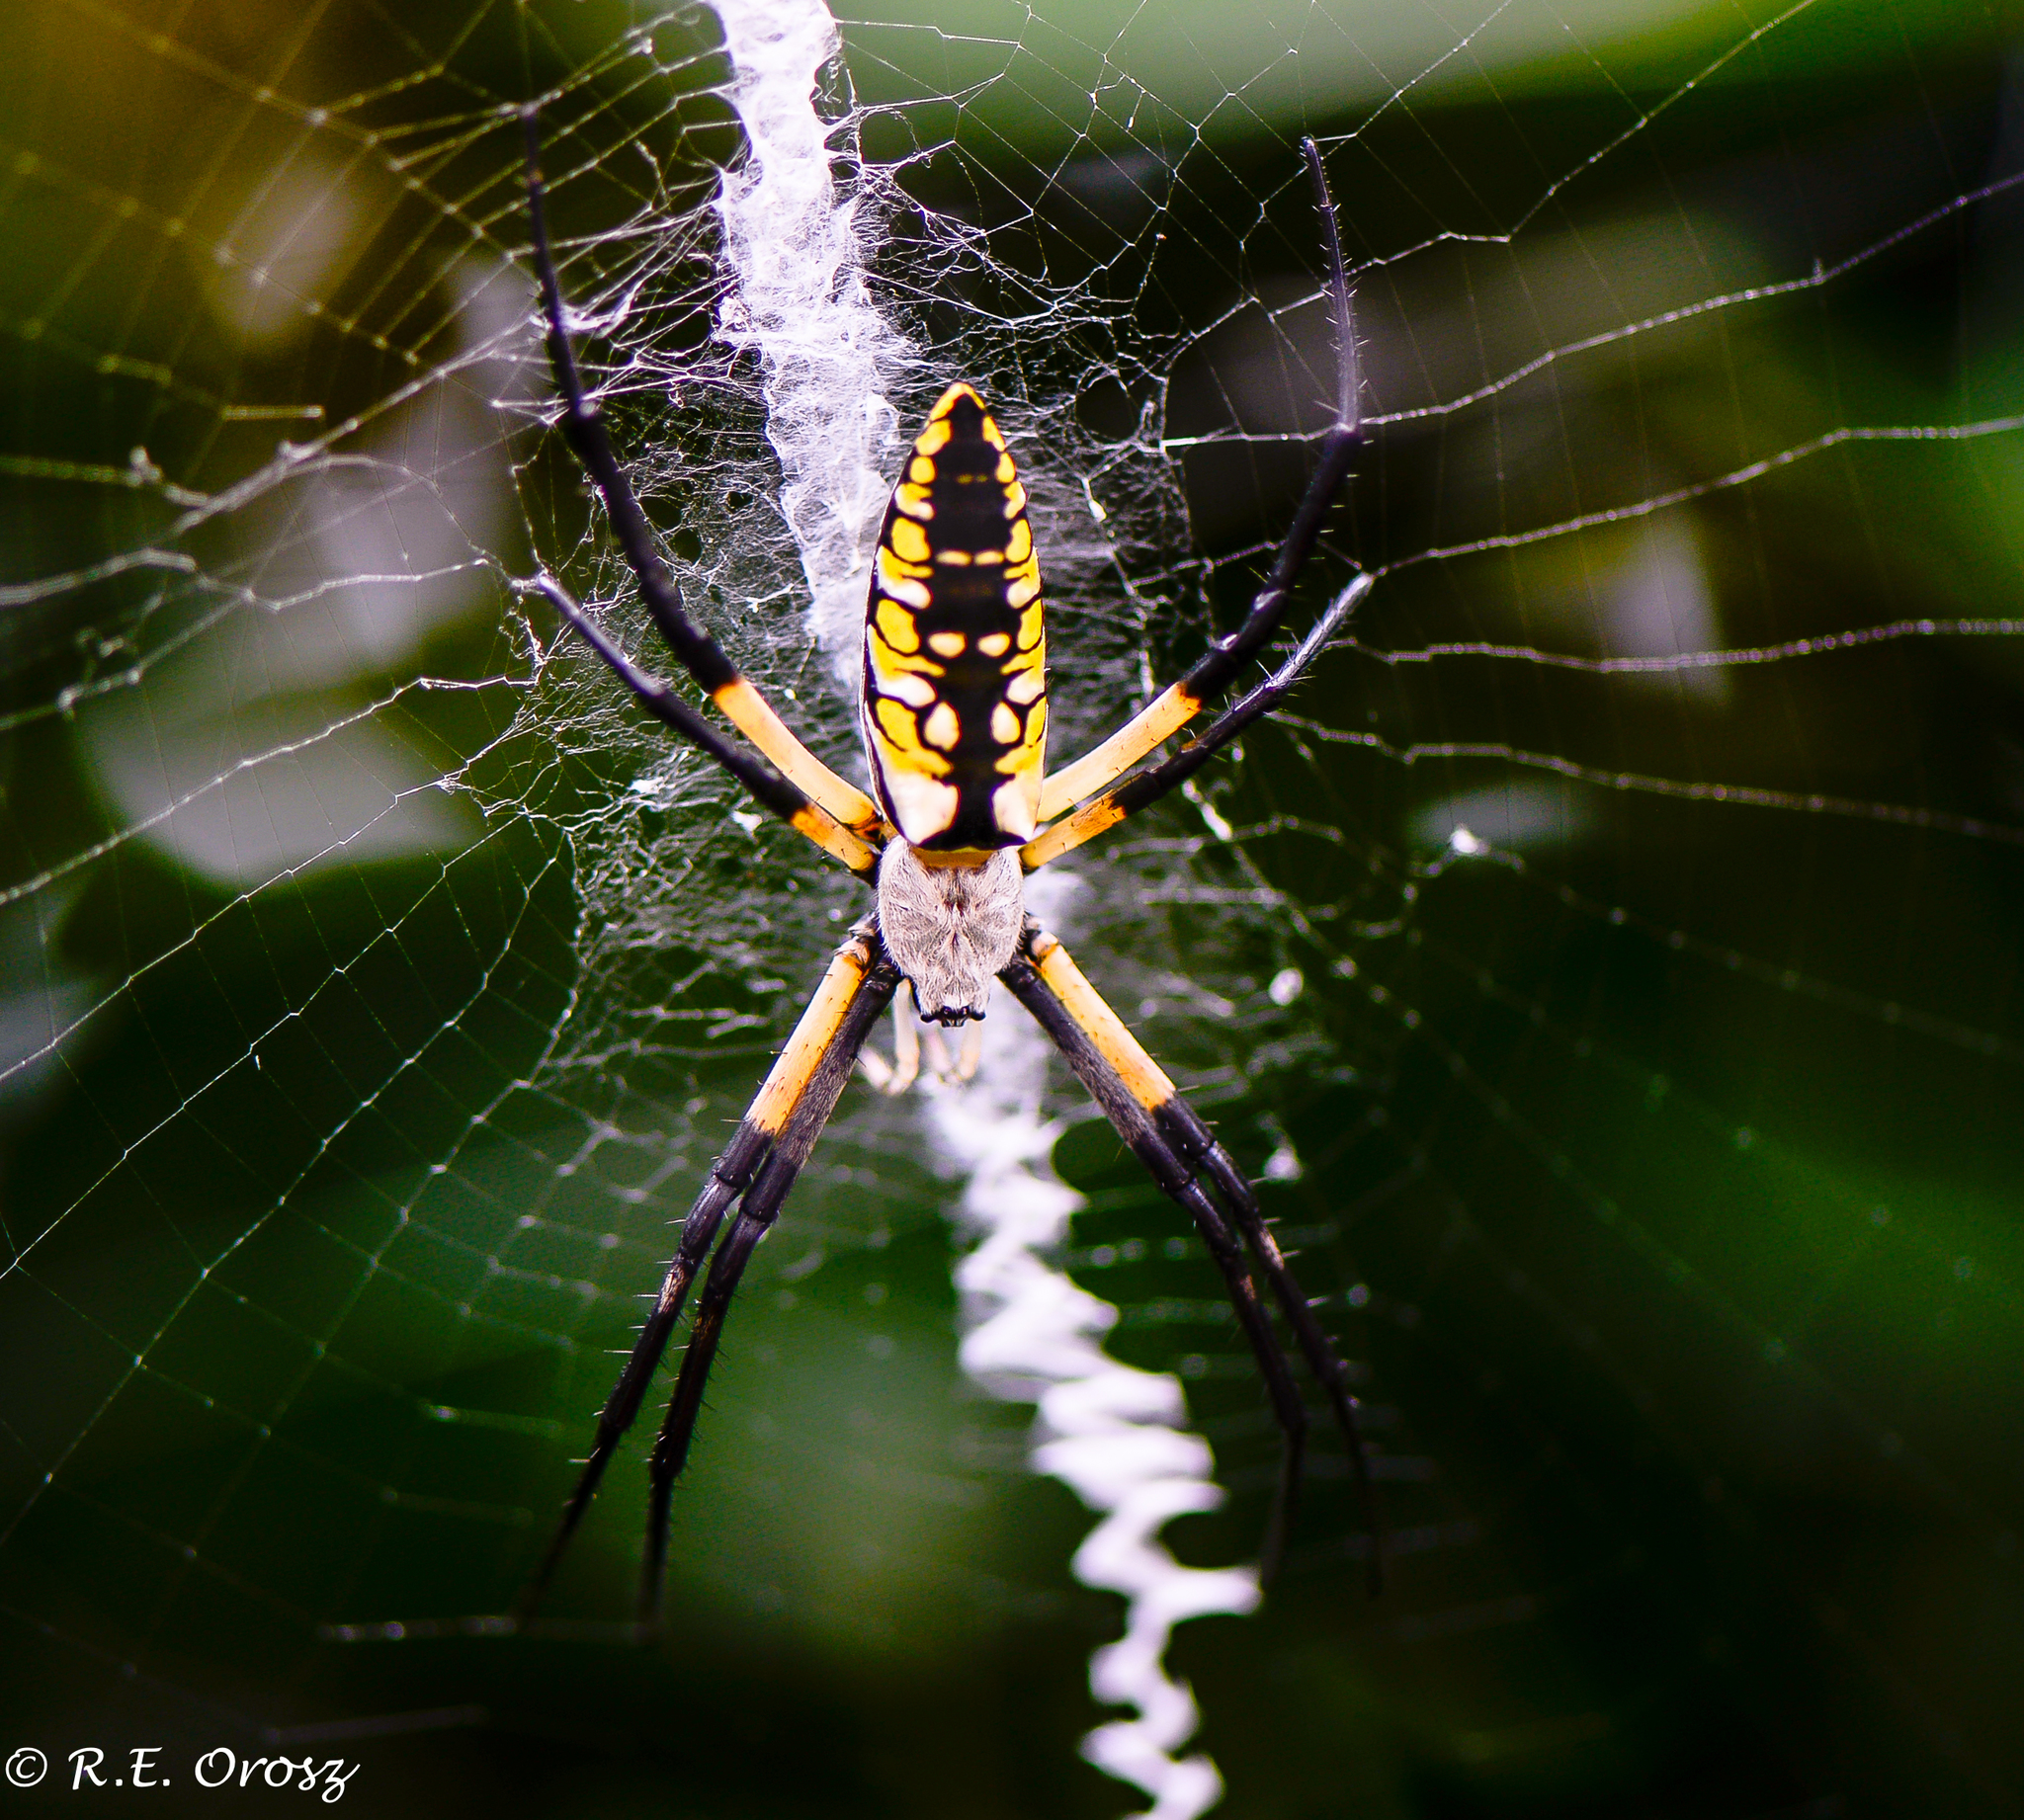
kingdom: Animalia
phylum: Arthropoda
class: Arachnida
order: Araneae
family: Araneidae
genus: Argiope
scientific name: Argiope aurantia
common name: Orb weavers
